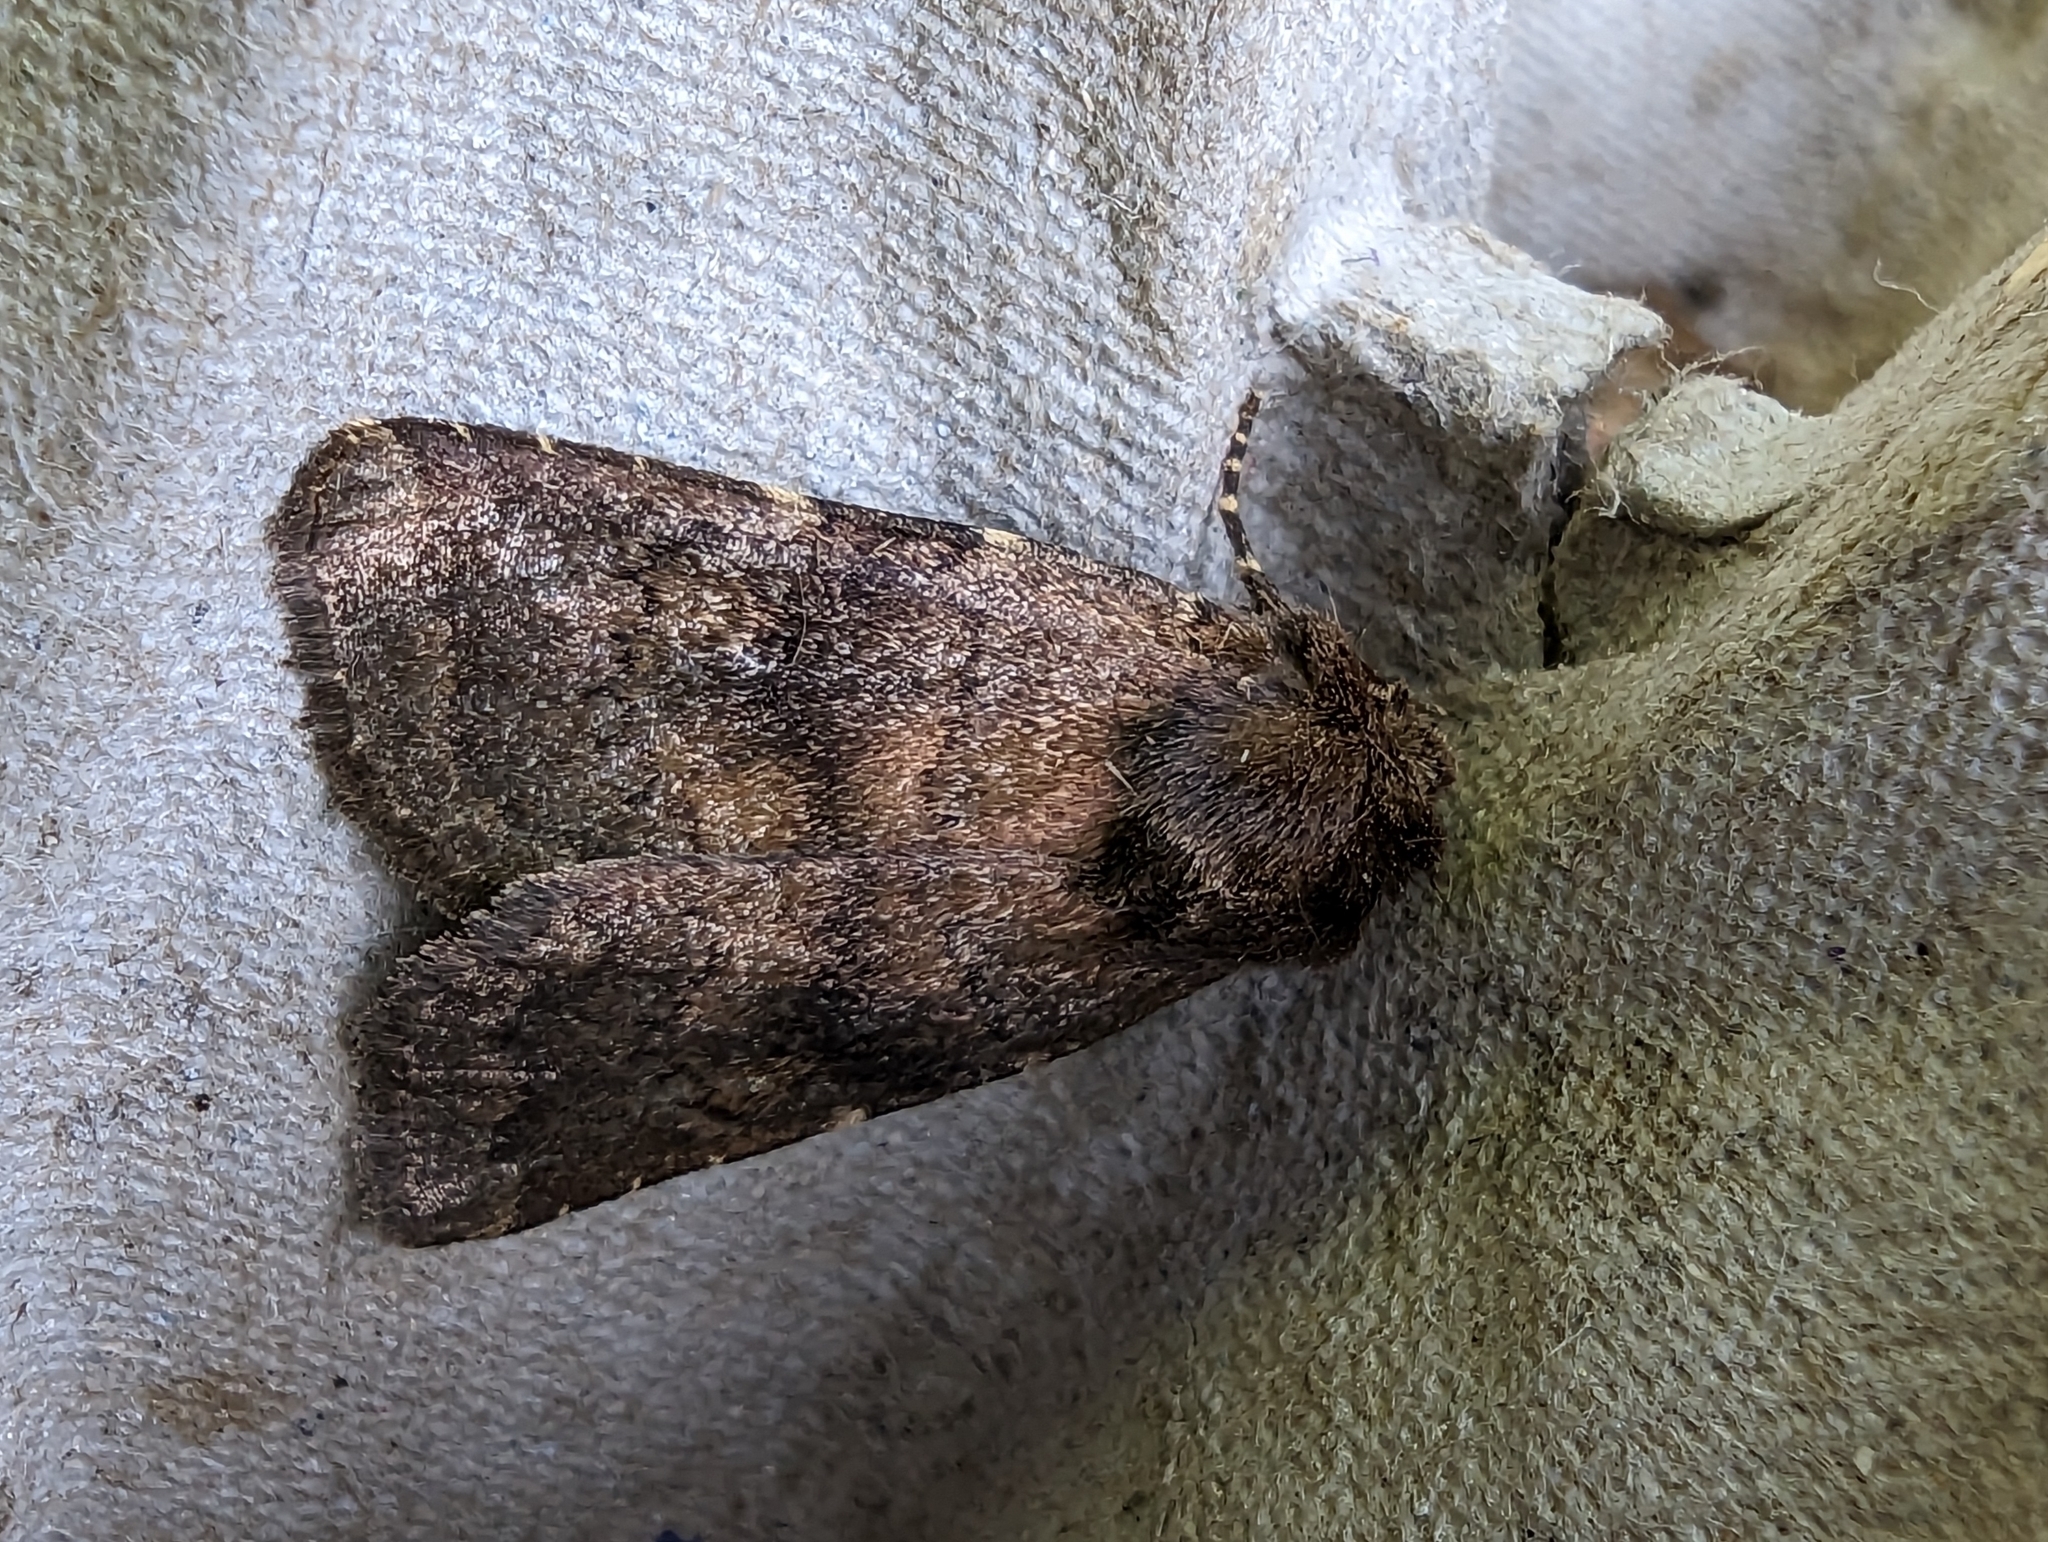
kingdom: Animalia
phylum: Arthropoda
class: Insecta
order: Lepidoptera
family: Noctuidae
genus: Charanyca
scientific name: Charanyca ferruginea
